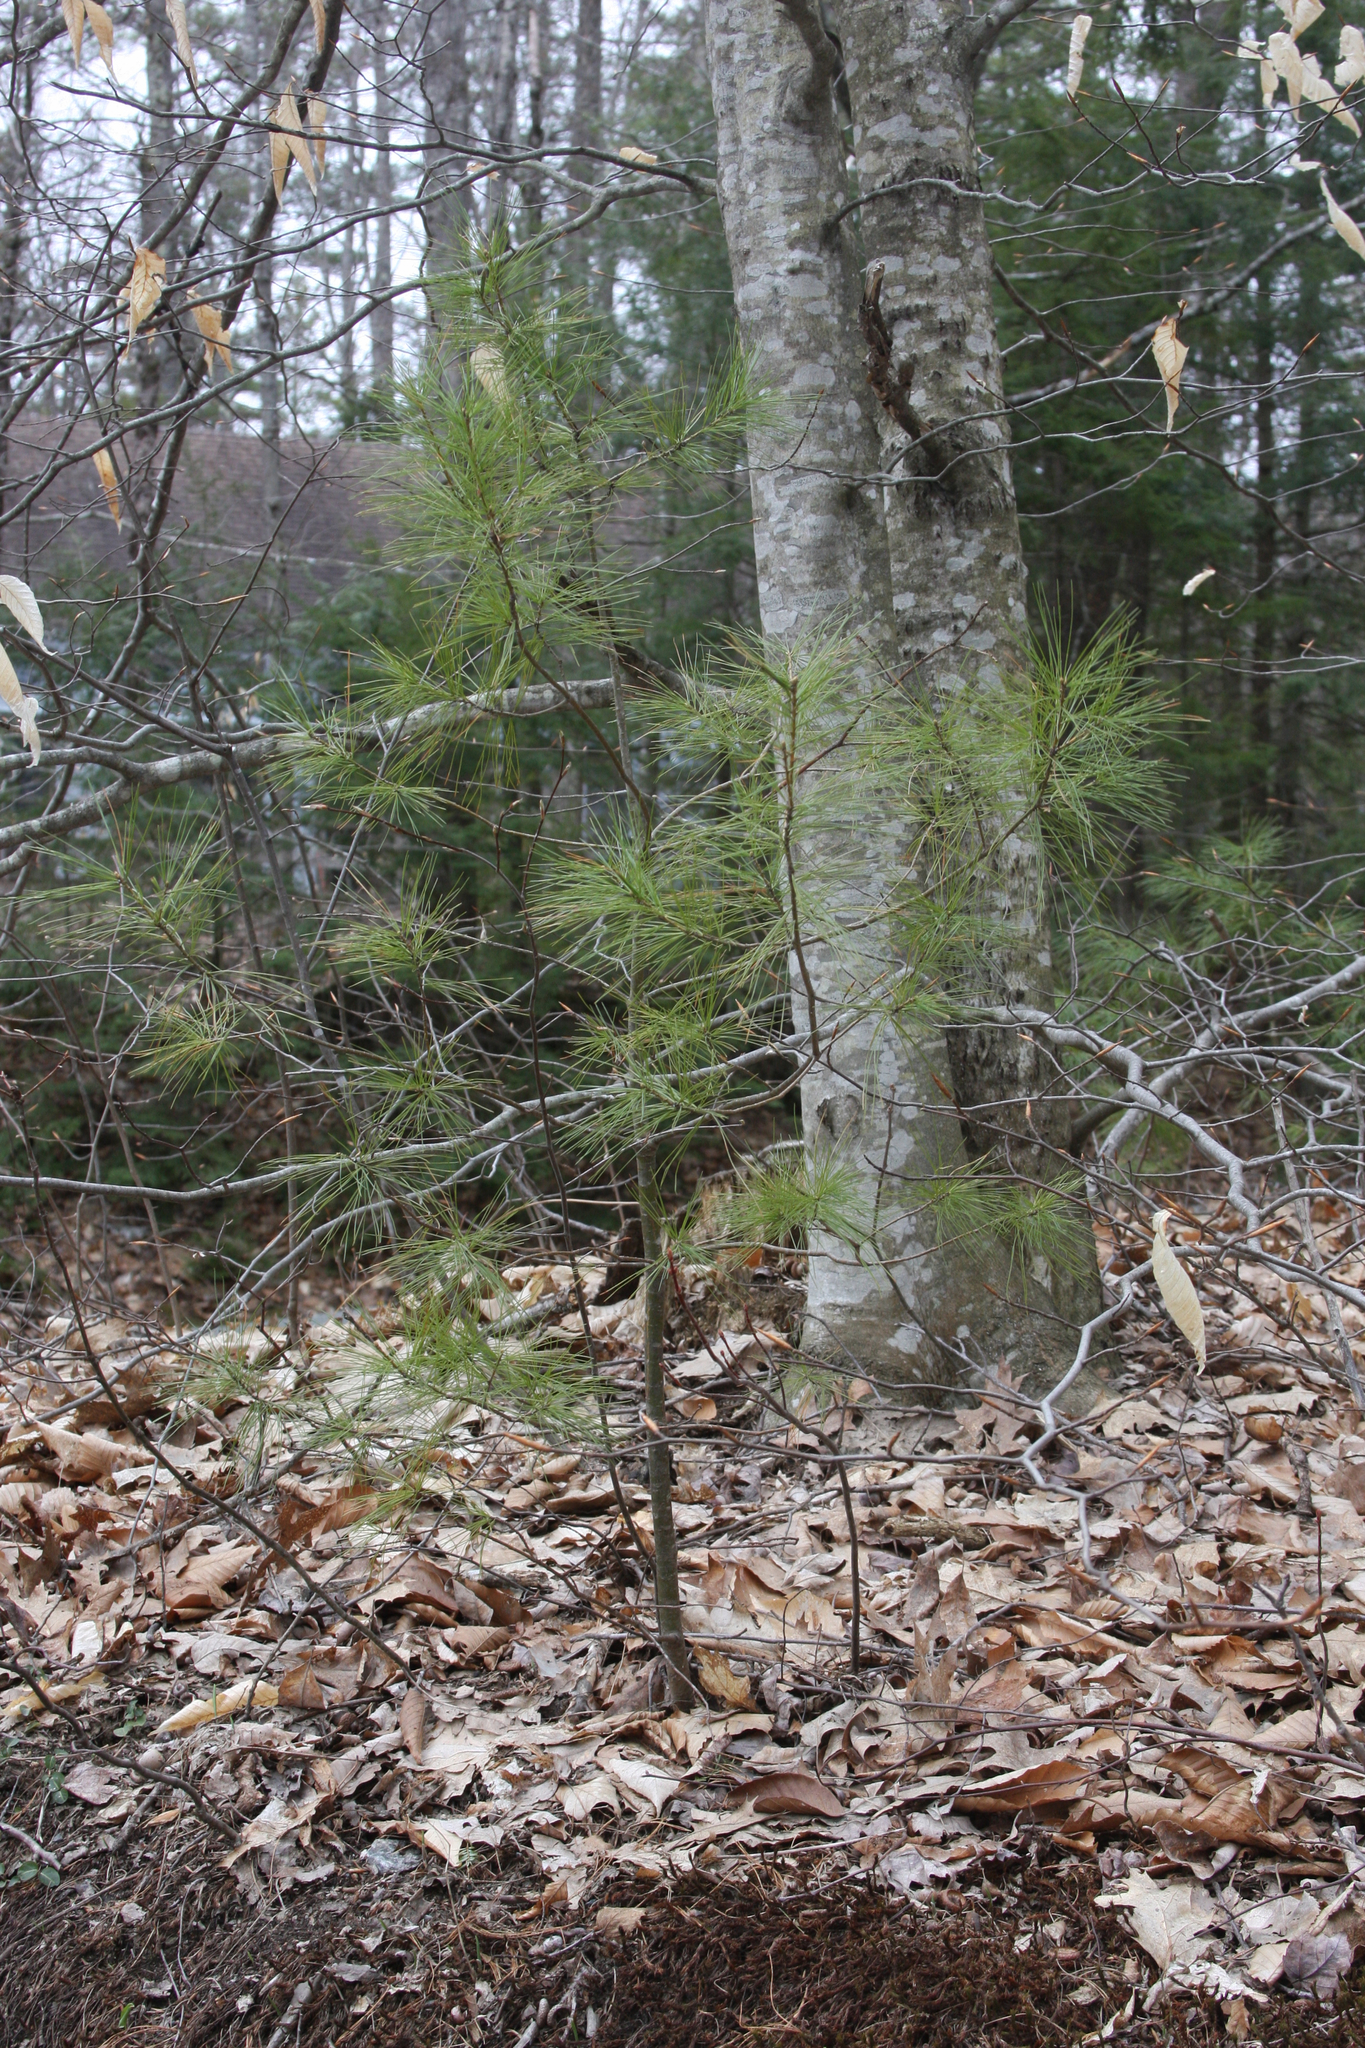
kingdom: Plantae
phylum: Tracheophyta
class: Pinopsida
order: Pinales
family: Pinaceae
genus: Pinus
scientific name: Pinus strobus
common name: Weymouth pine
